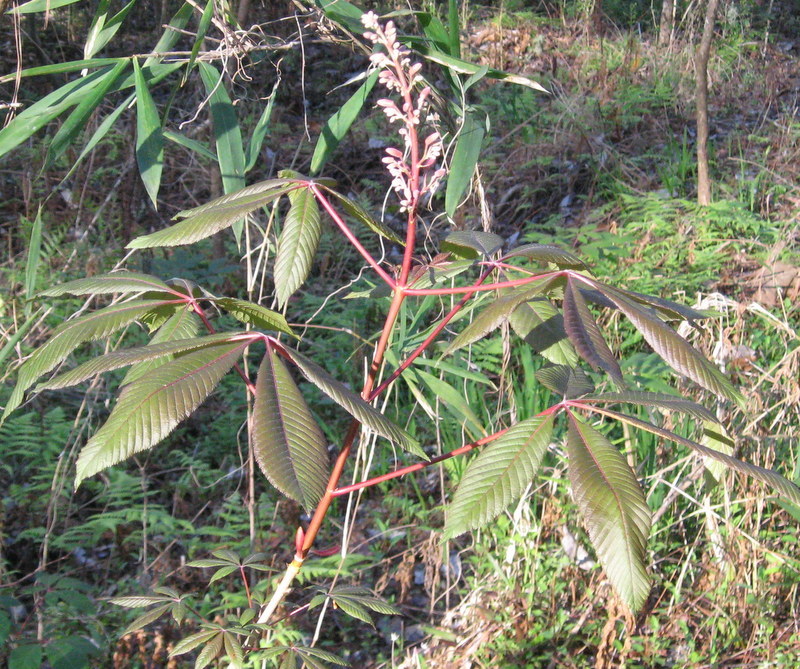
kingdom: Plantae
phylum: Tracheophyta
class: Magnoliopsida
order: Sapindales
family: Sapindaceae
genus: Aesculus
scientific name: Aesculus pavia
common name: Red buckeye
